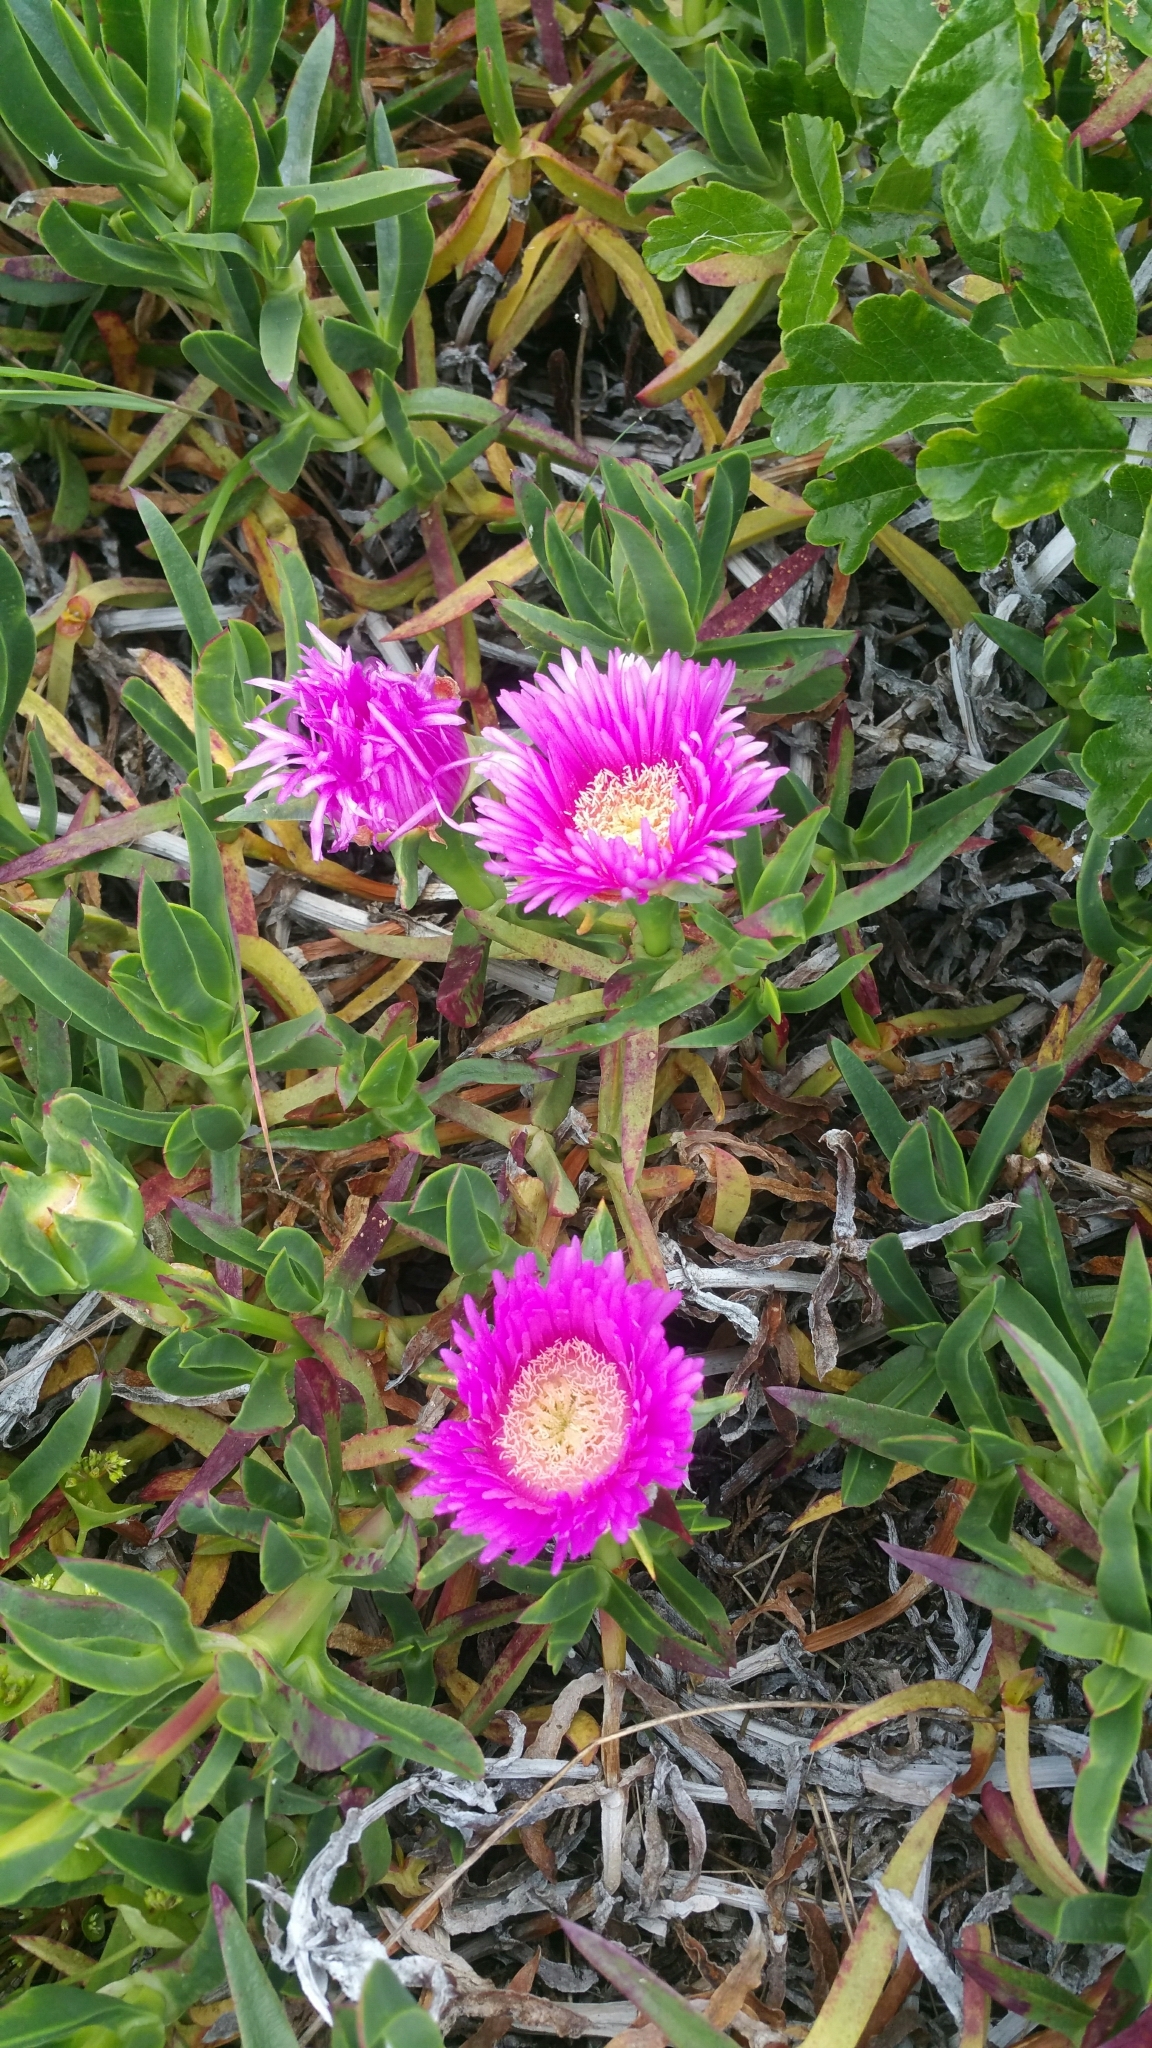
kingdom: Plantae
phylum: Tracheophyta
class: Magnoliopsida
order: Caryophyllales
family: Aizoaceae
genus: Carpobrotus
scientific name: Carpobrotus edulis
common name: Hottentot-fig
